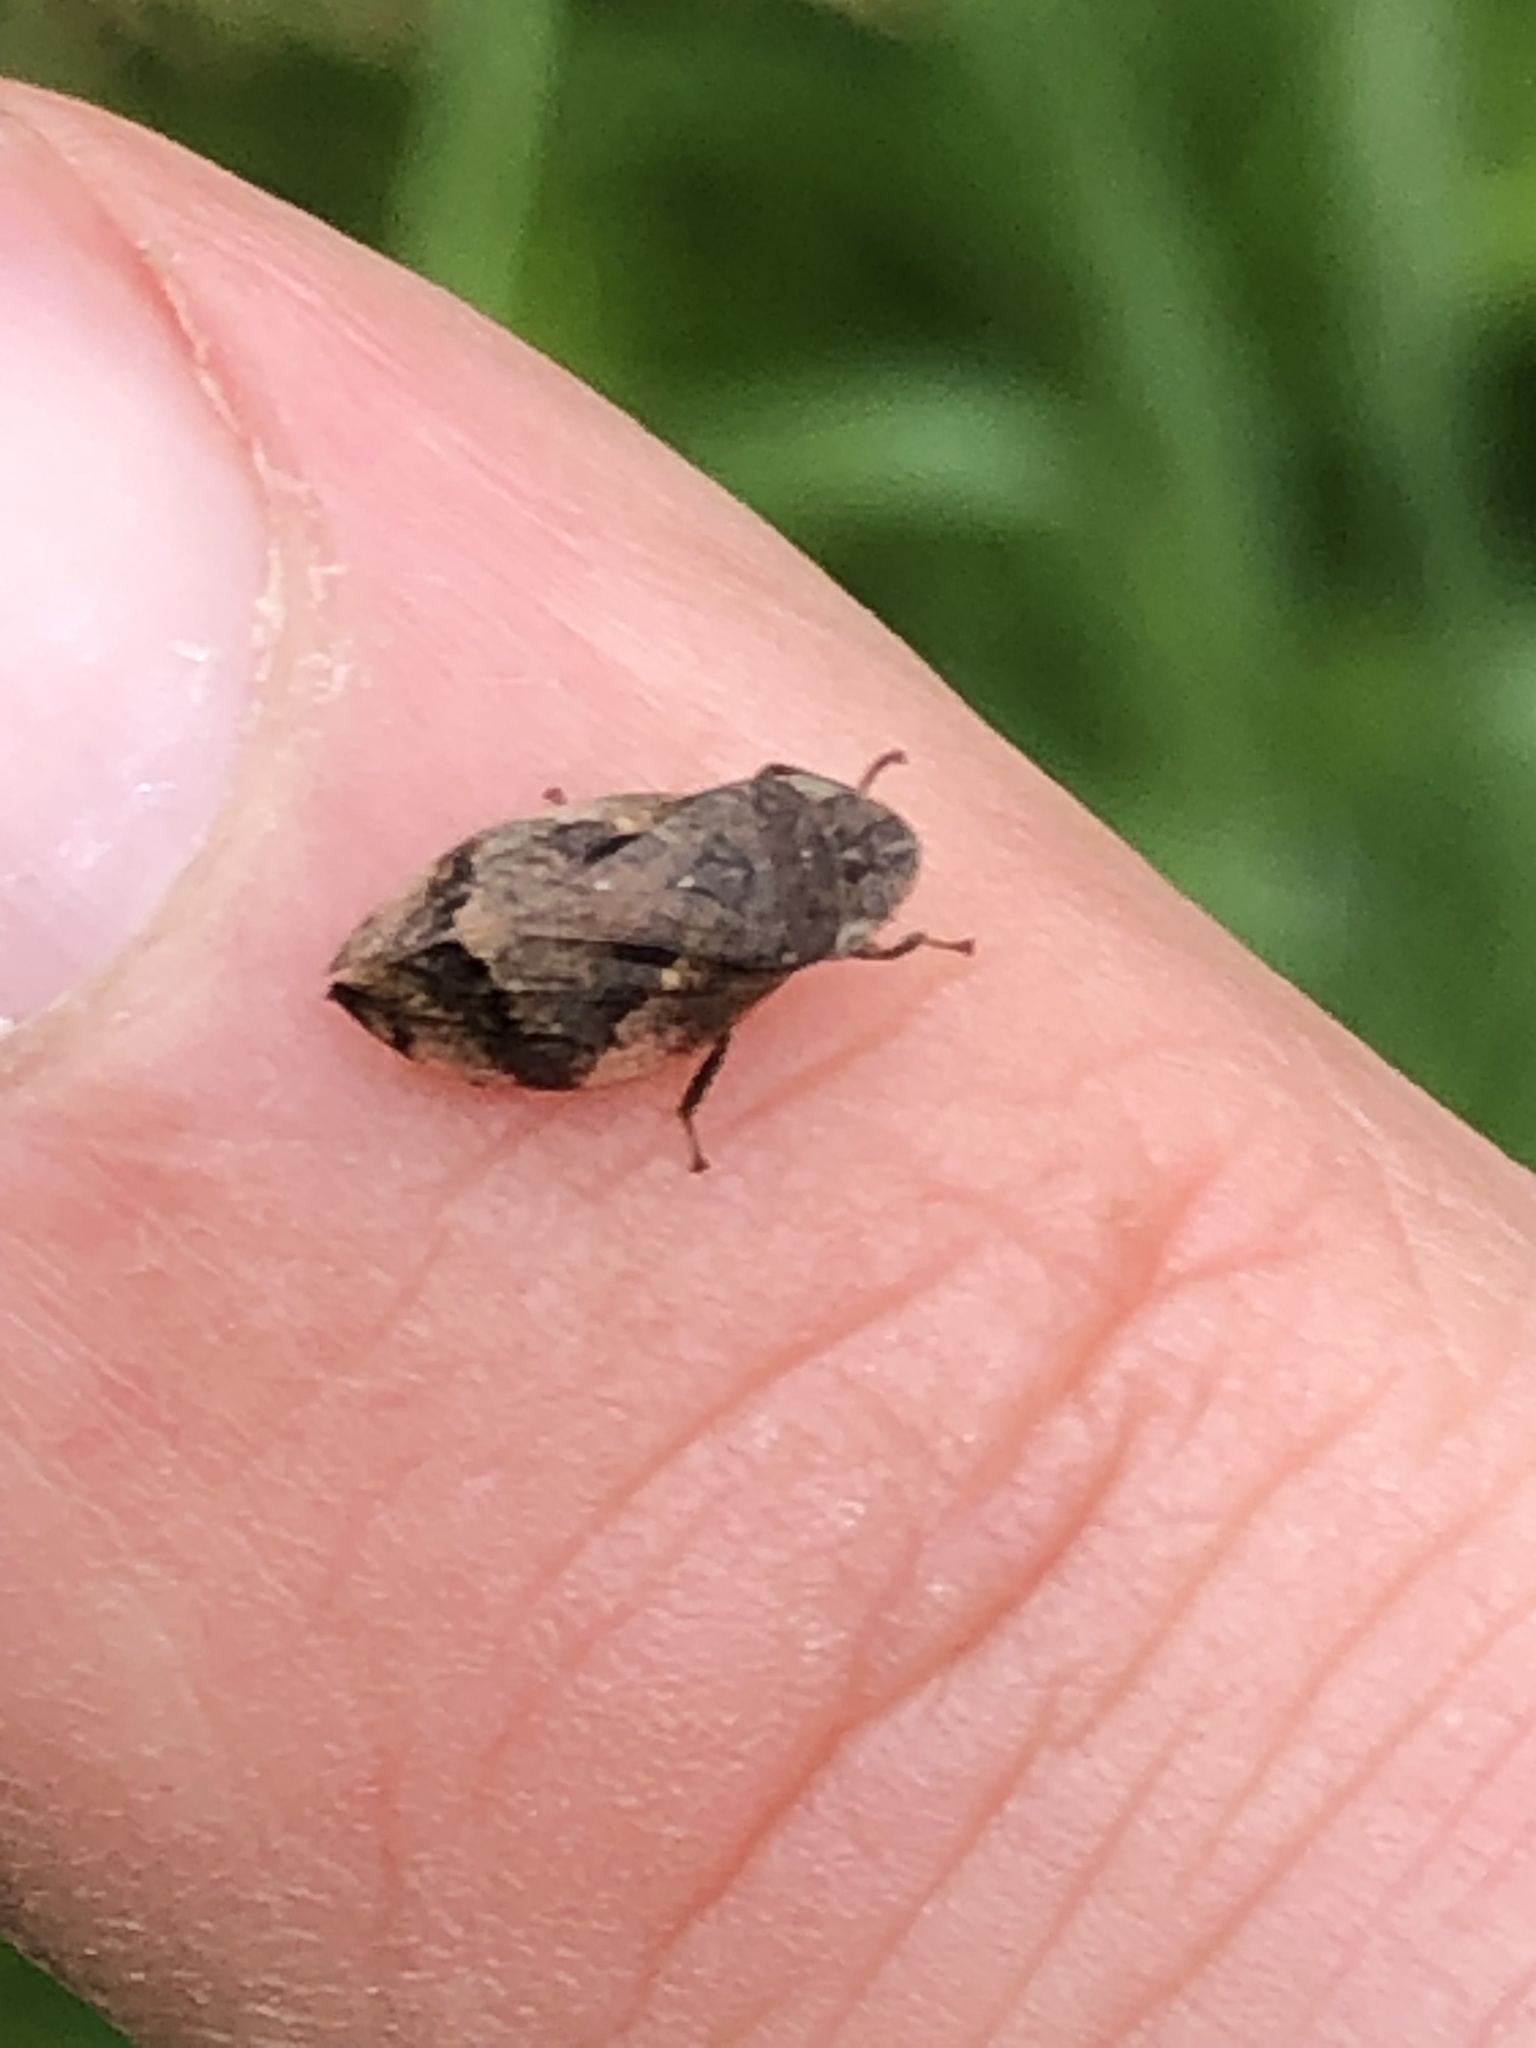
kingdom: Animalia
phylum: Arthropoda
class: Insecta
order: Hemiptera
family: Aphrophoridae
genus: Lepyronia
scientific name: Lepyronia quadrangularis
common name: Diamond-backed spittlebug
